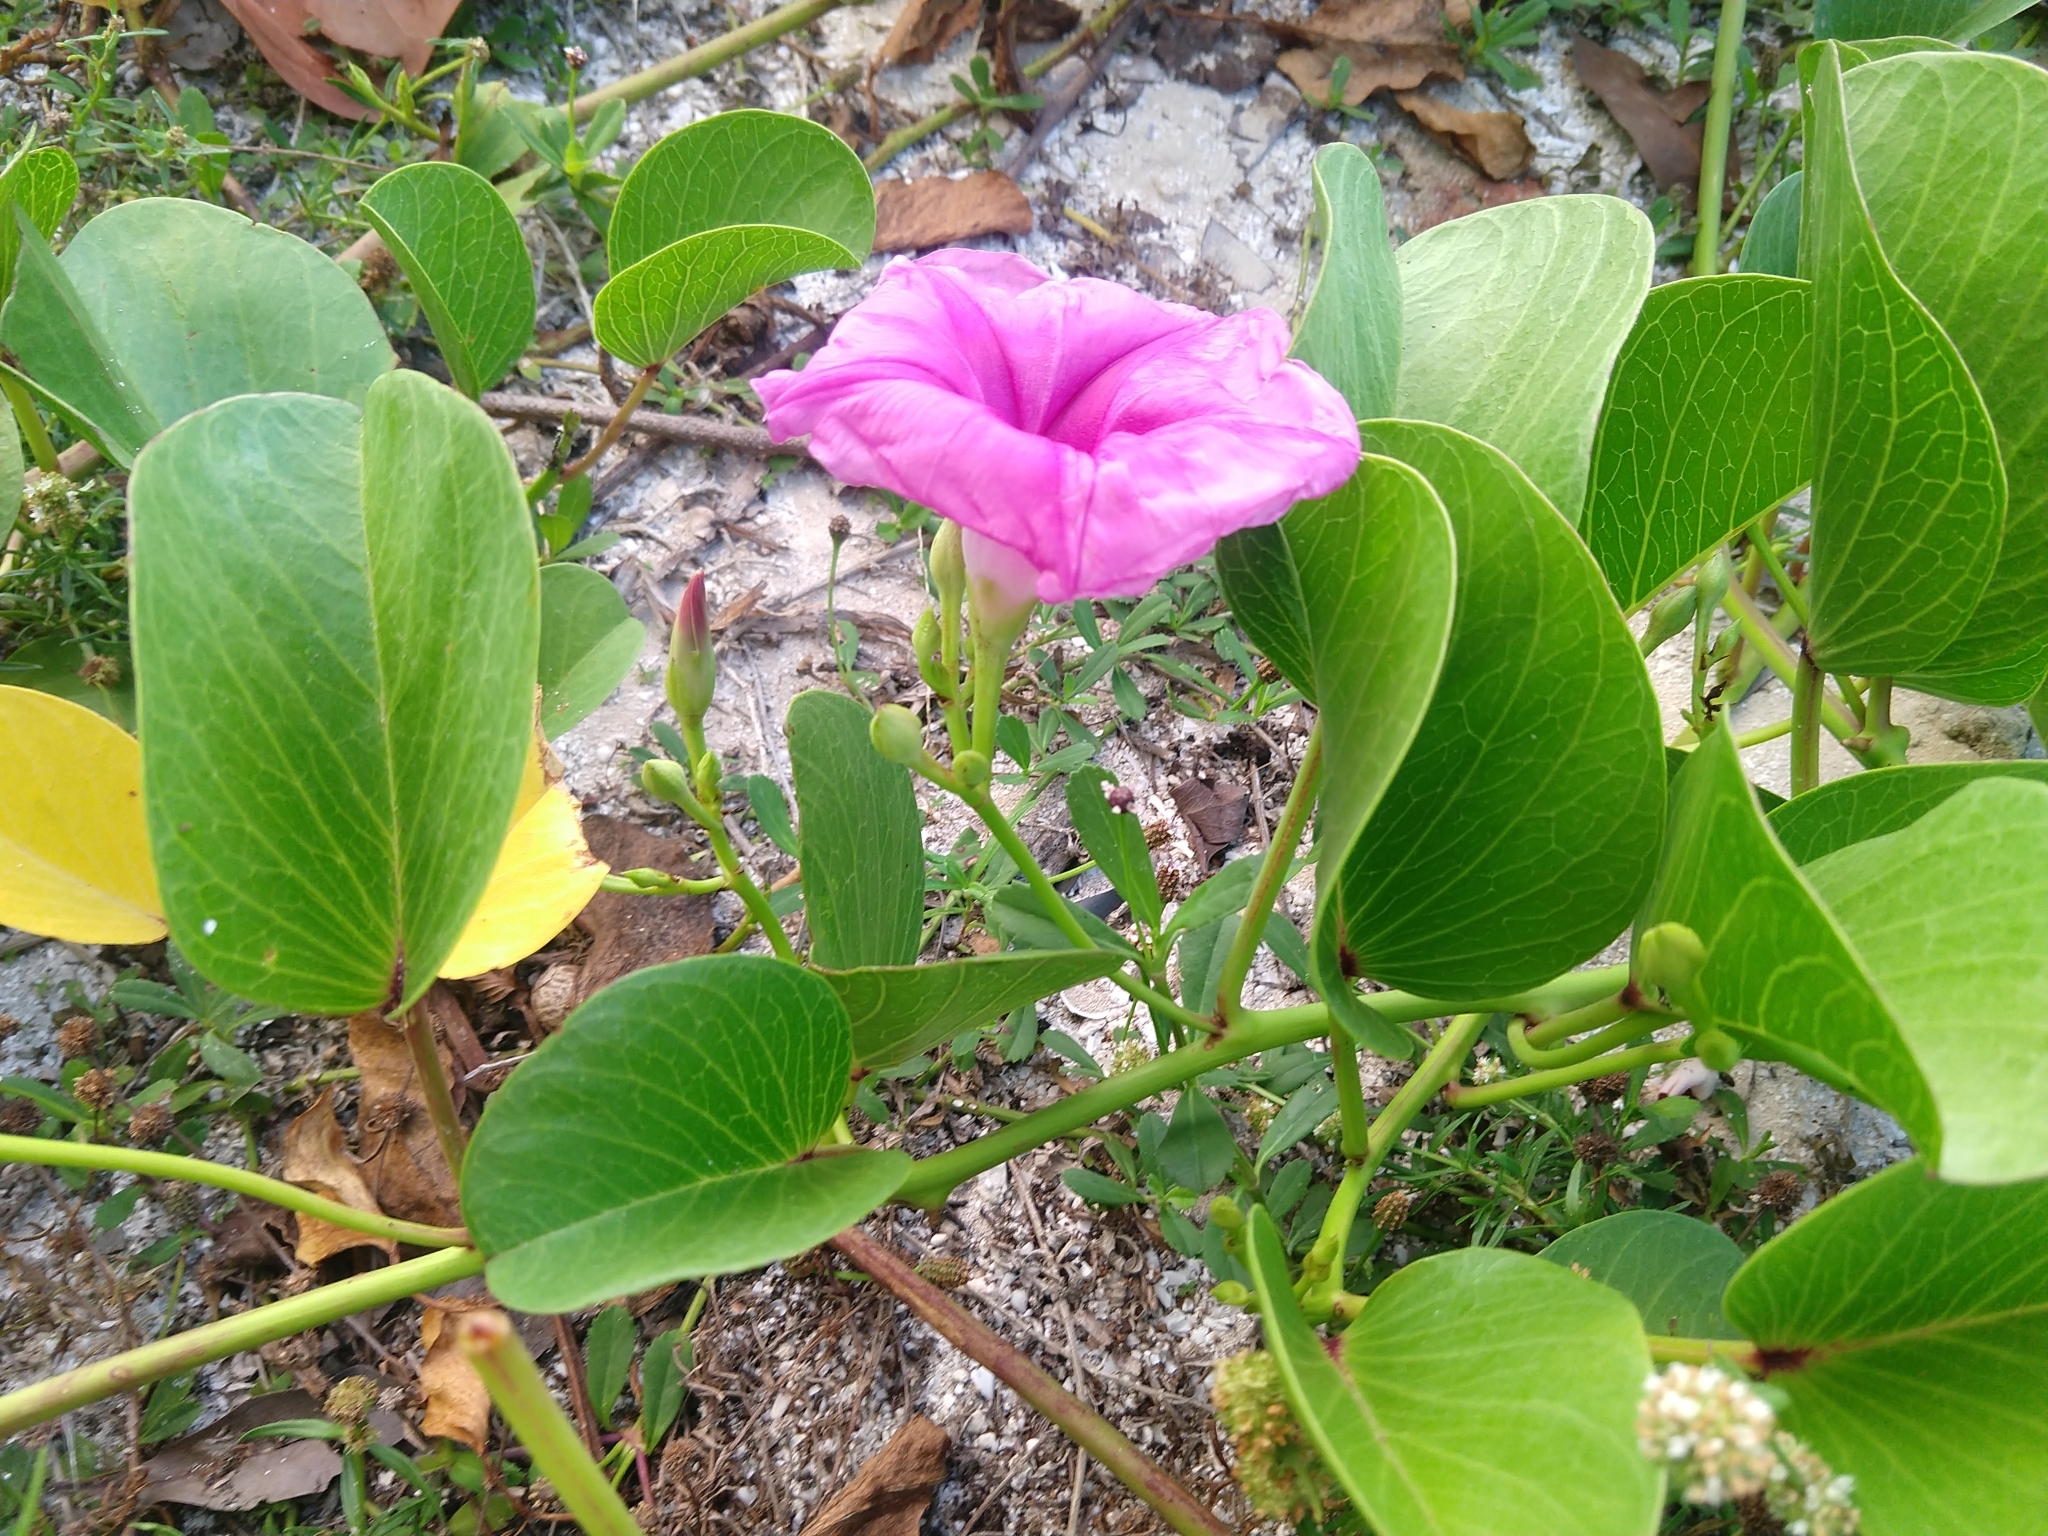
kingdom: Plantae
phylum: Tracheophyta
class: Magnoliopsida
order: Solanales
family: Convolvulaceae
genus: Ipomoea
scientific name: Ipomoea pes-caprae
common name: Beach morning glory
